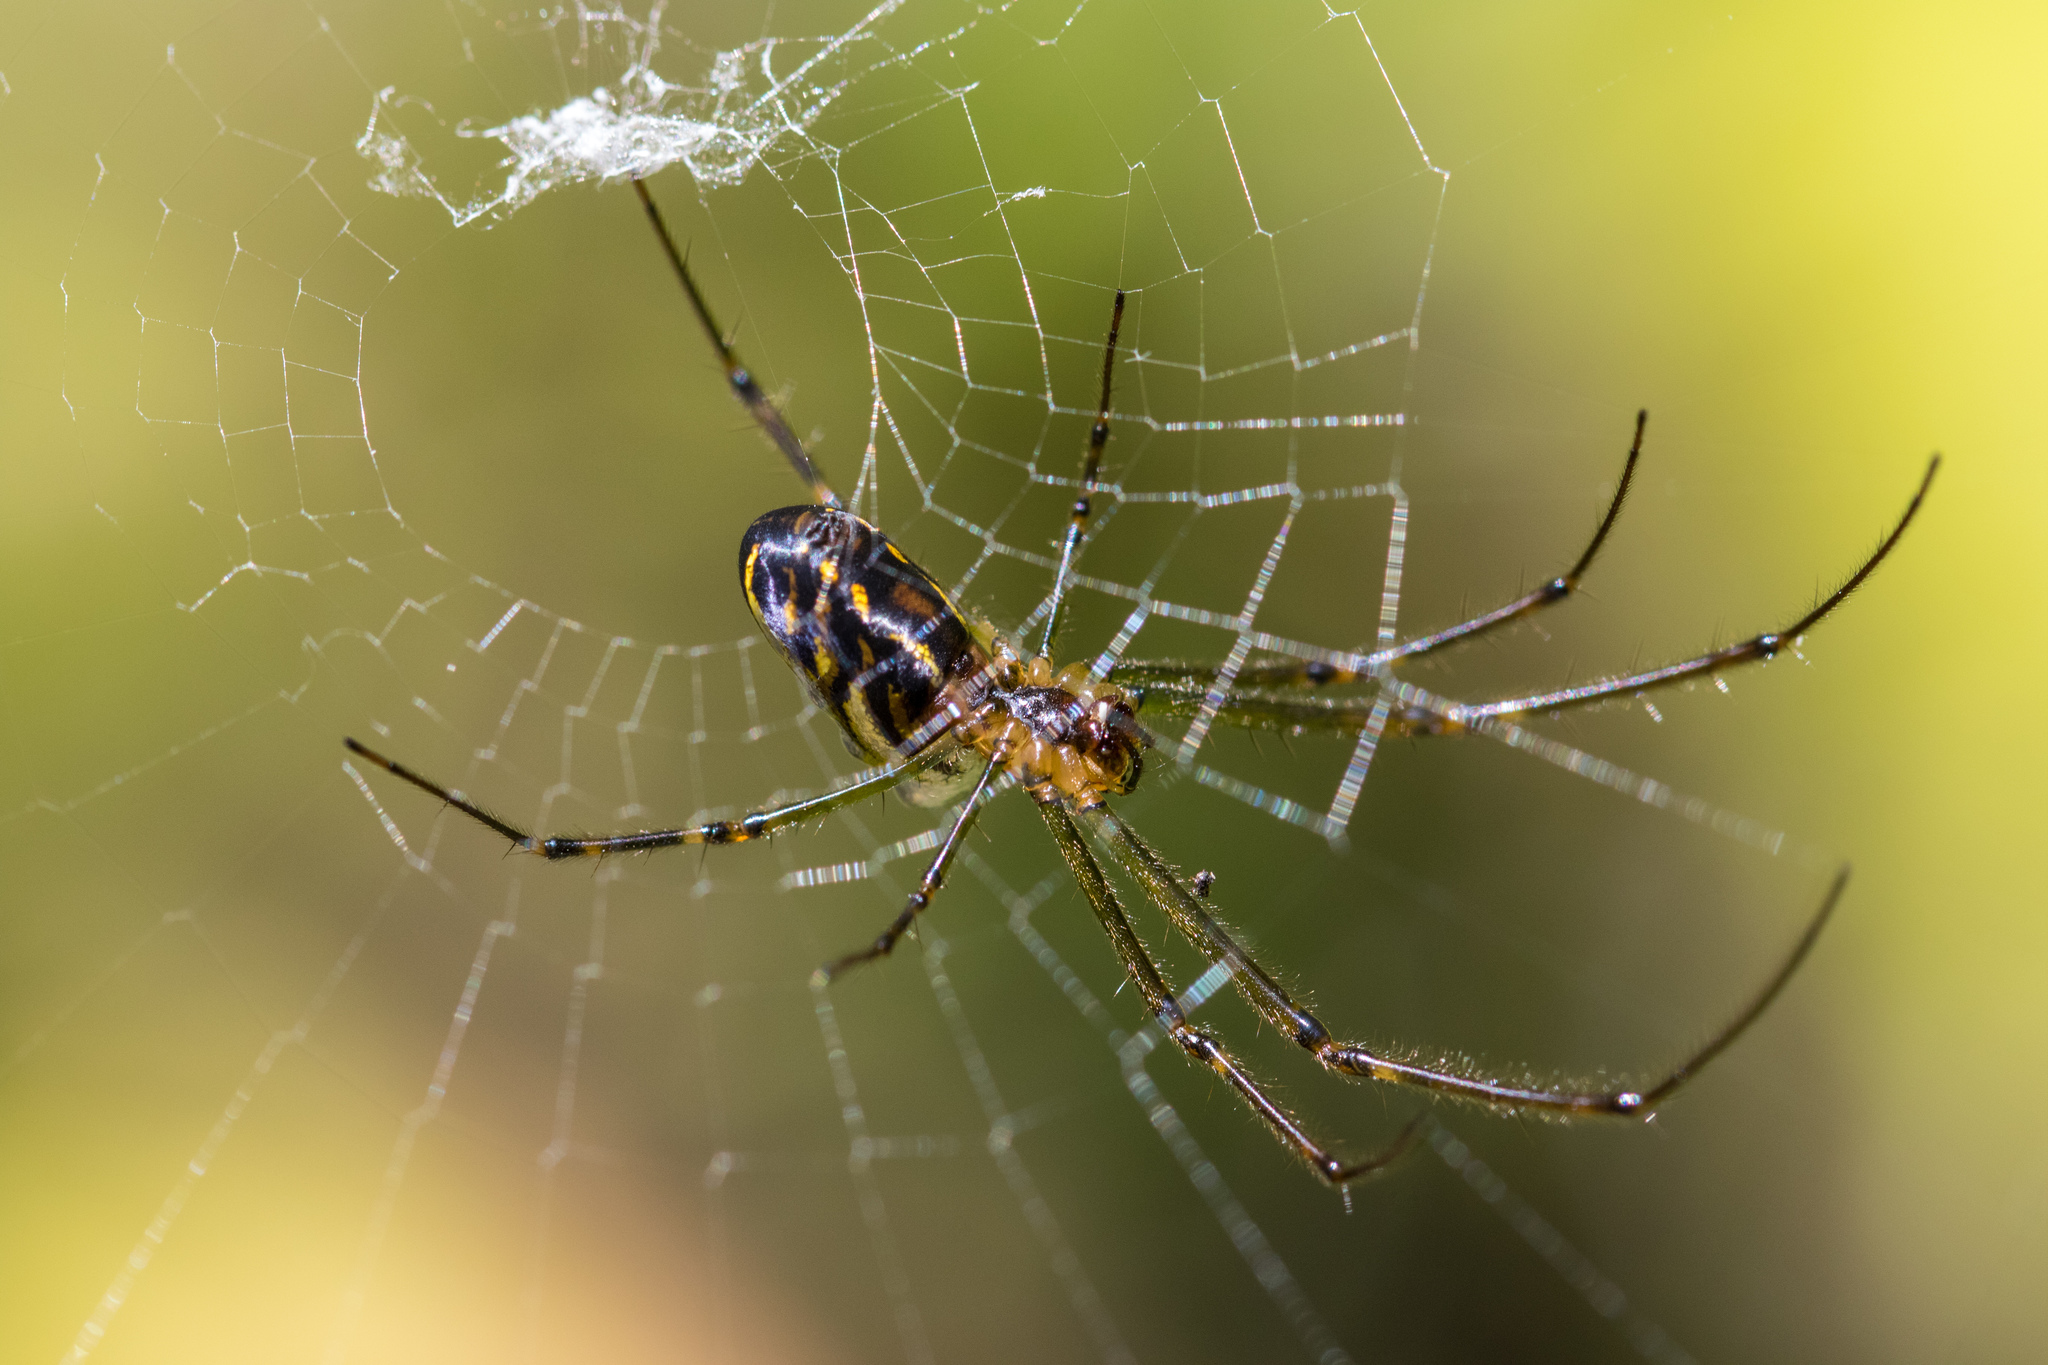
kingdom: Animalia
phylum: Arthropoda
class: Arachnida
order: Araneae
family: Tetragnathidae
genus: Leucauge
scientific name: Leucauge dromedaria
